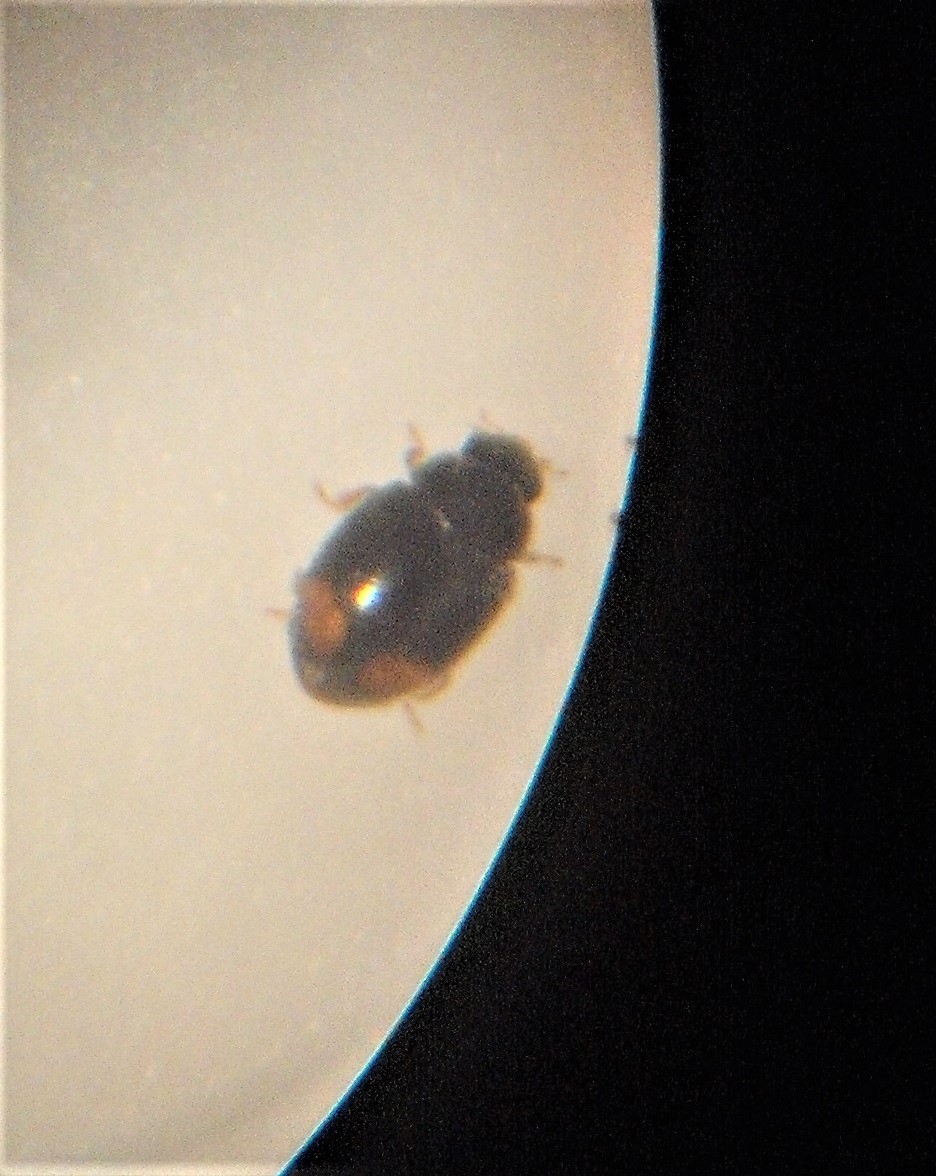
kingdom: Animalia
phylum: Arthropoda
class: Insecta
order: Coleoptera
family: Coccinellidae
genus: Nephus
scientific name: Nephus binaevatus
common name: Ladybird beetle
